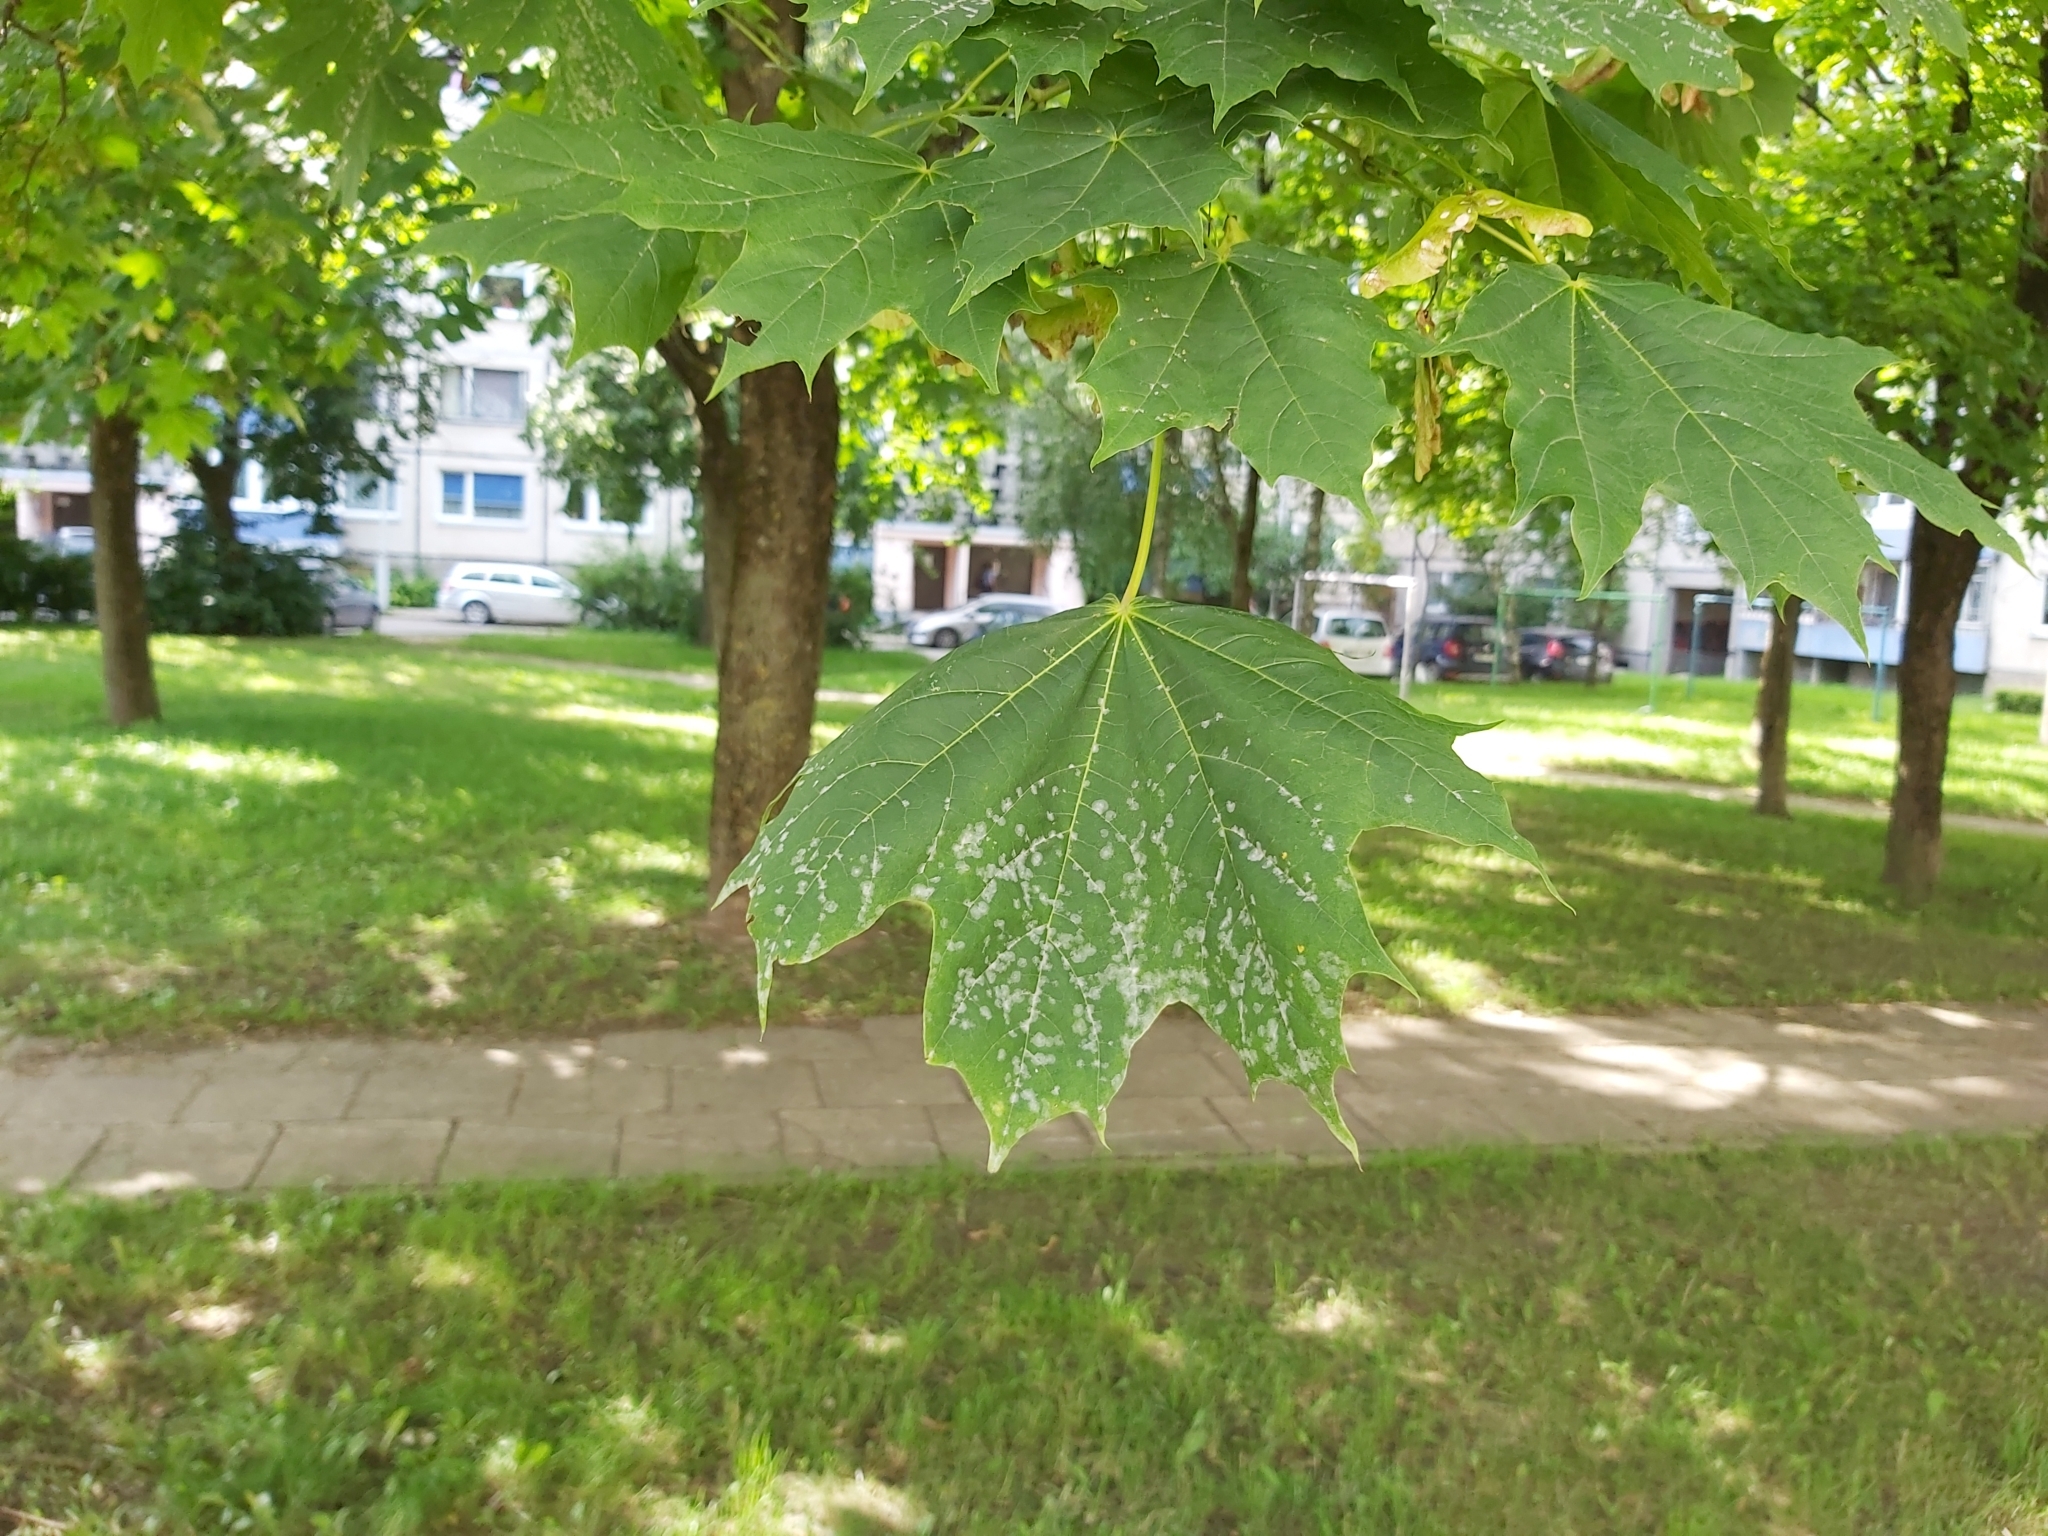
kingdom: Fungi
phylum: Ascomycota
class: Leotiomycetes
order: Helotiales
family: Erysiphaceae
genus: Sawadaea
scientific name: Sawadaea tulasnei
